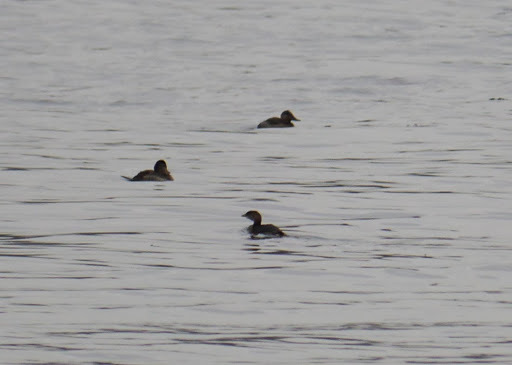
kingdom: Animalia
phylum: Chordata
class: Aves
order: Podicipediformes
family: Podicipedidae
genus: Podilymbus
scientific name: Podilymbus podiceps
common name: Pied-billed grebe
